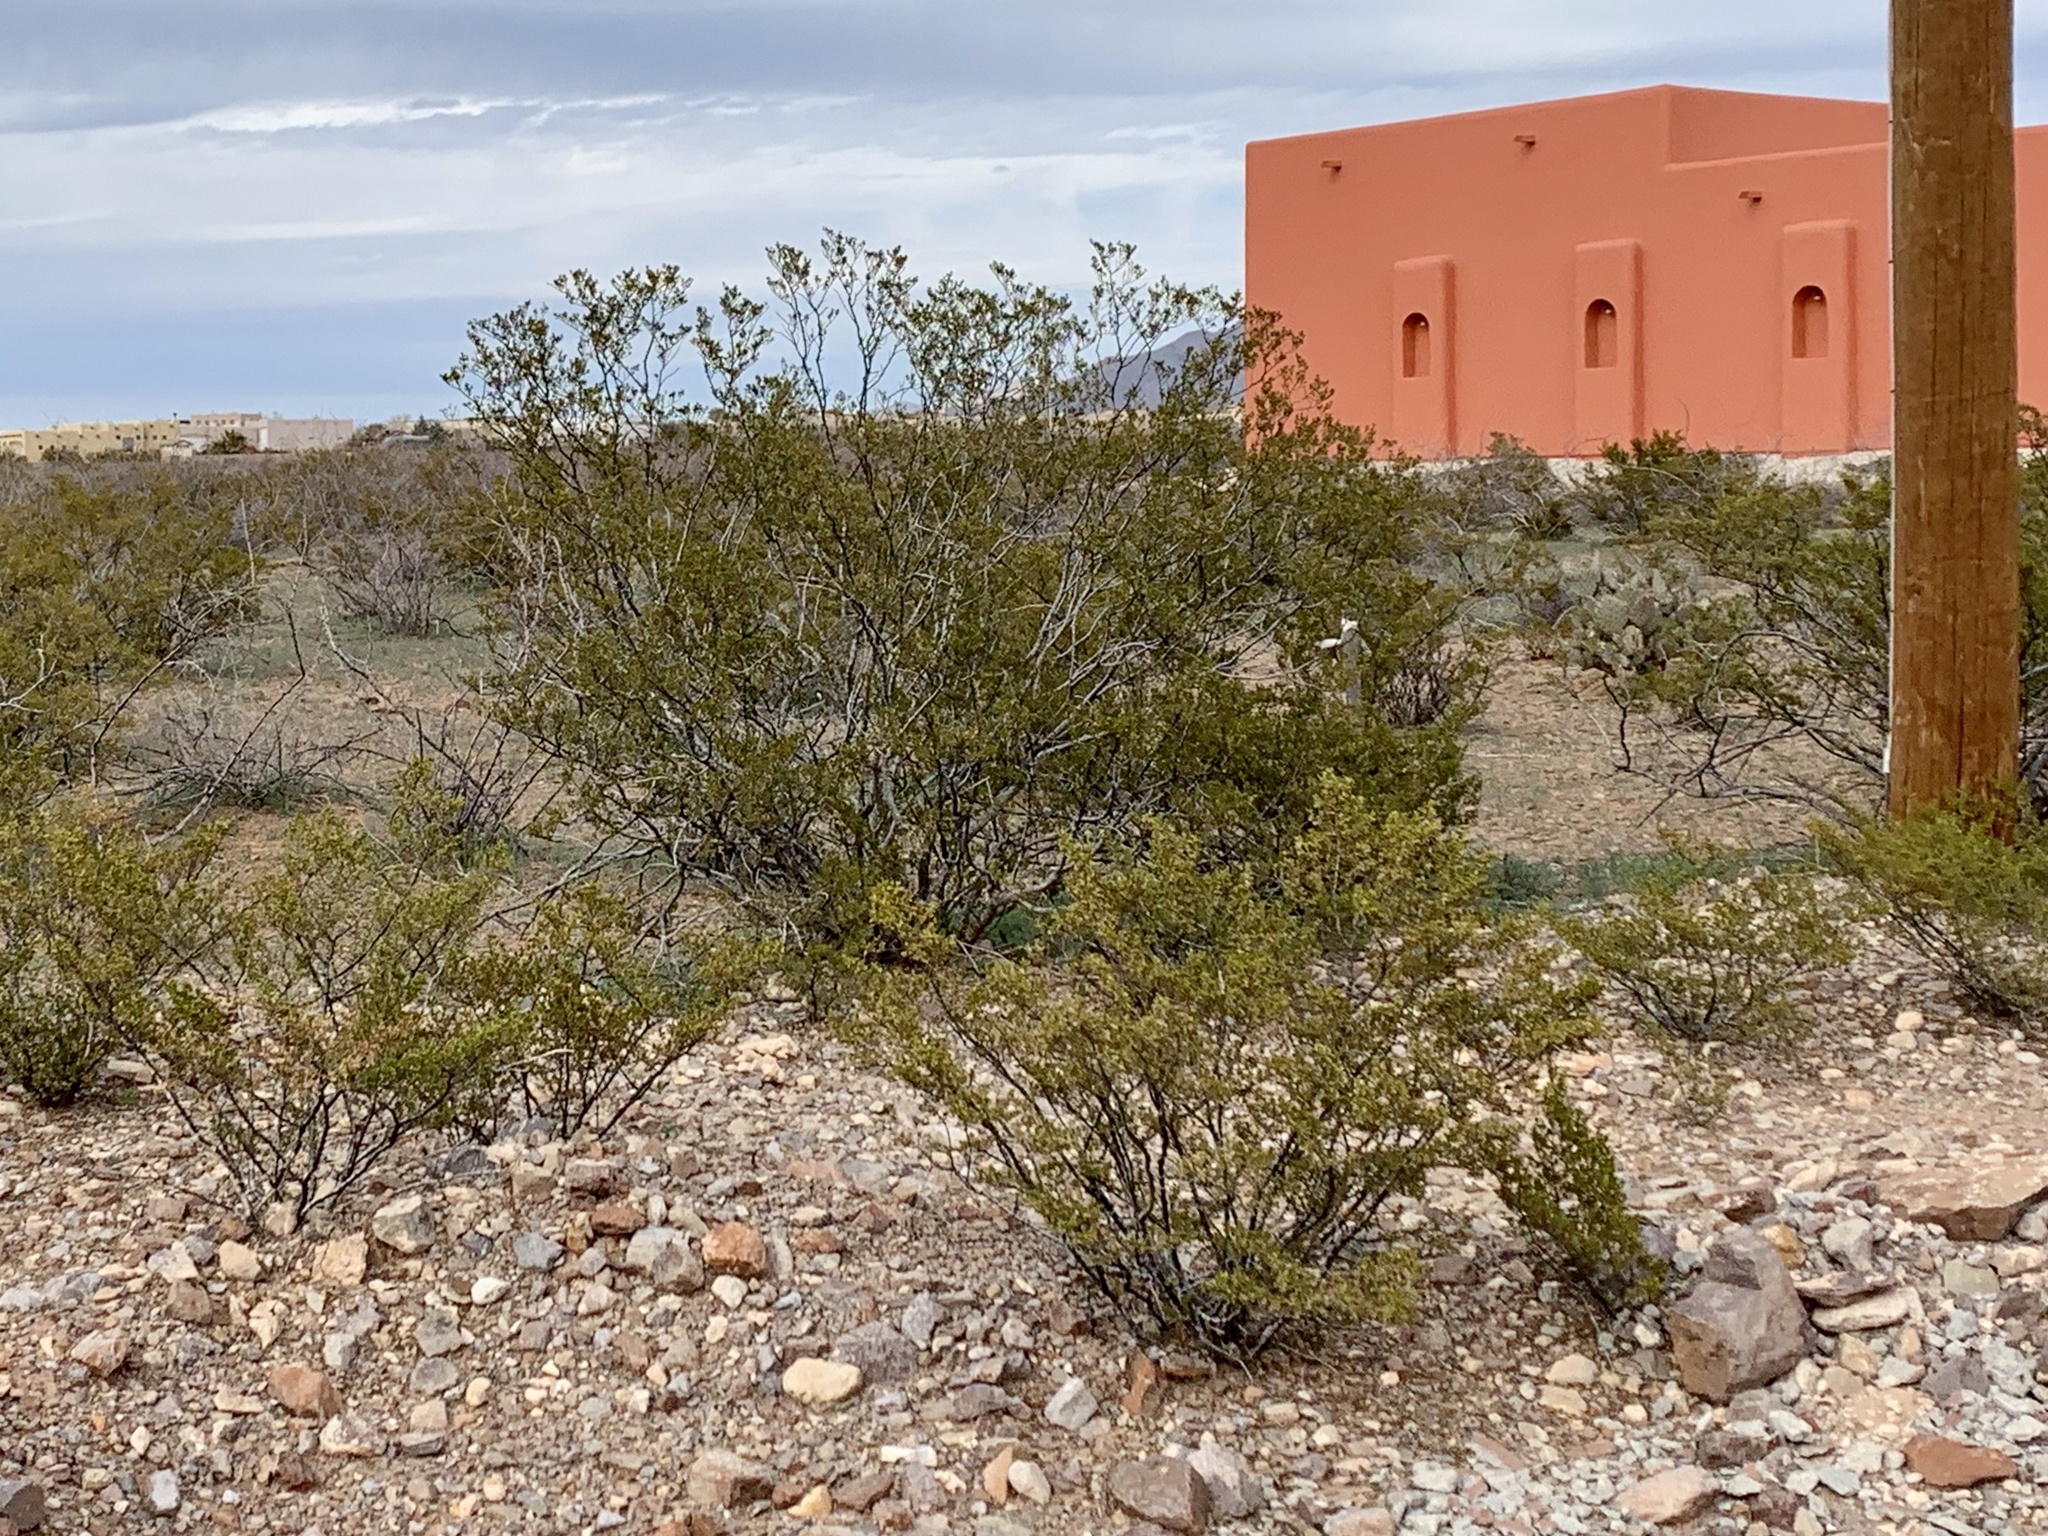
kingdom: Plantae
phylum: Tracheophyta
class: Magnoliopsida
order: Zygophyllales
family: Zygophyllaceae
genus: Larrea
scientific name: Larrea tridentata
